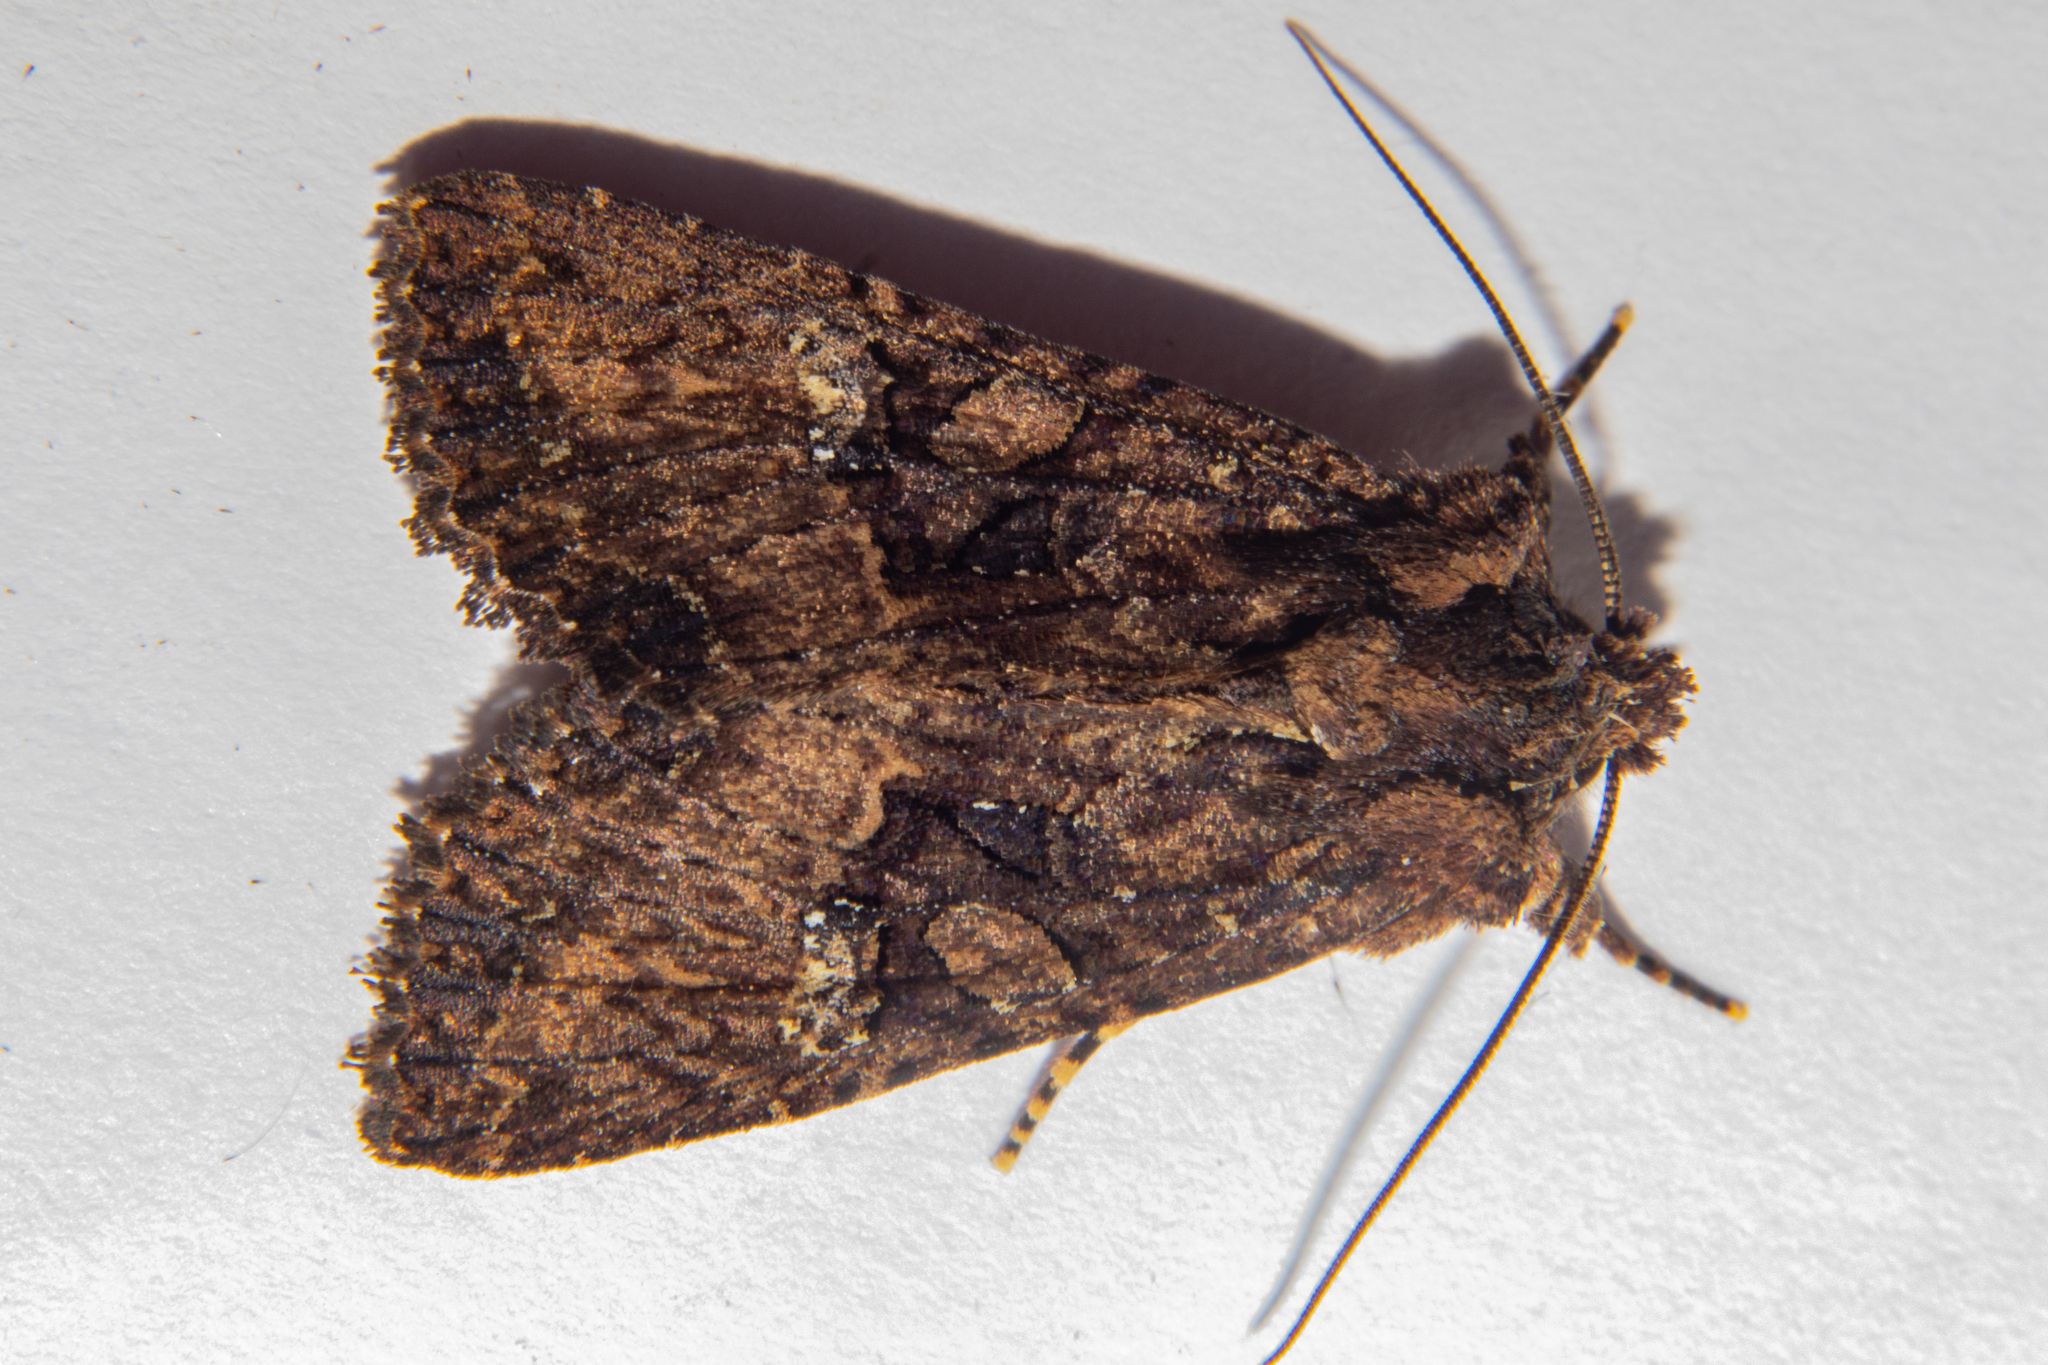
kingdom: Animalia
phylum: Arthropoda
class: Insecta
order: Lepidoptera
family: Noctuidae
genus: Meterana
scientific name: Meterana ochthistis
